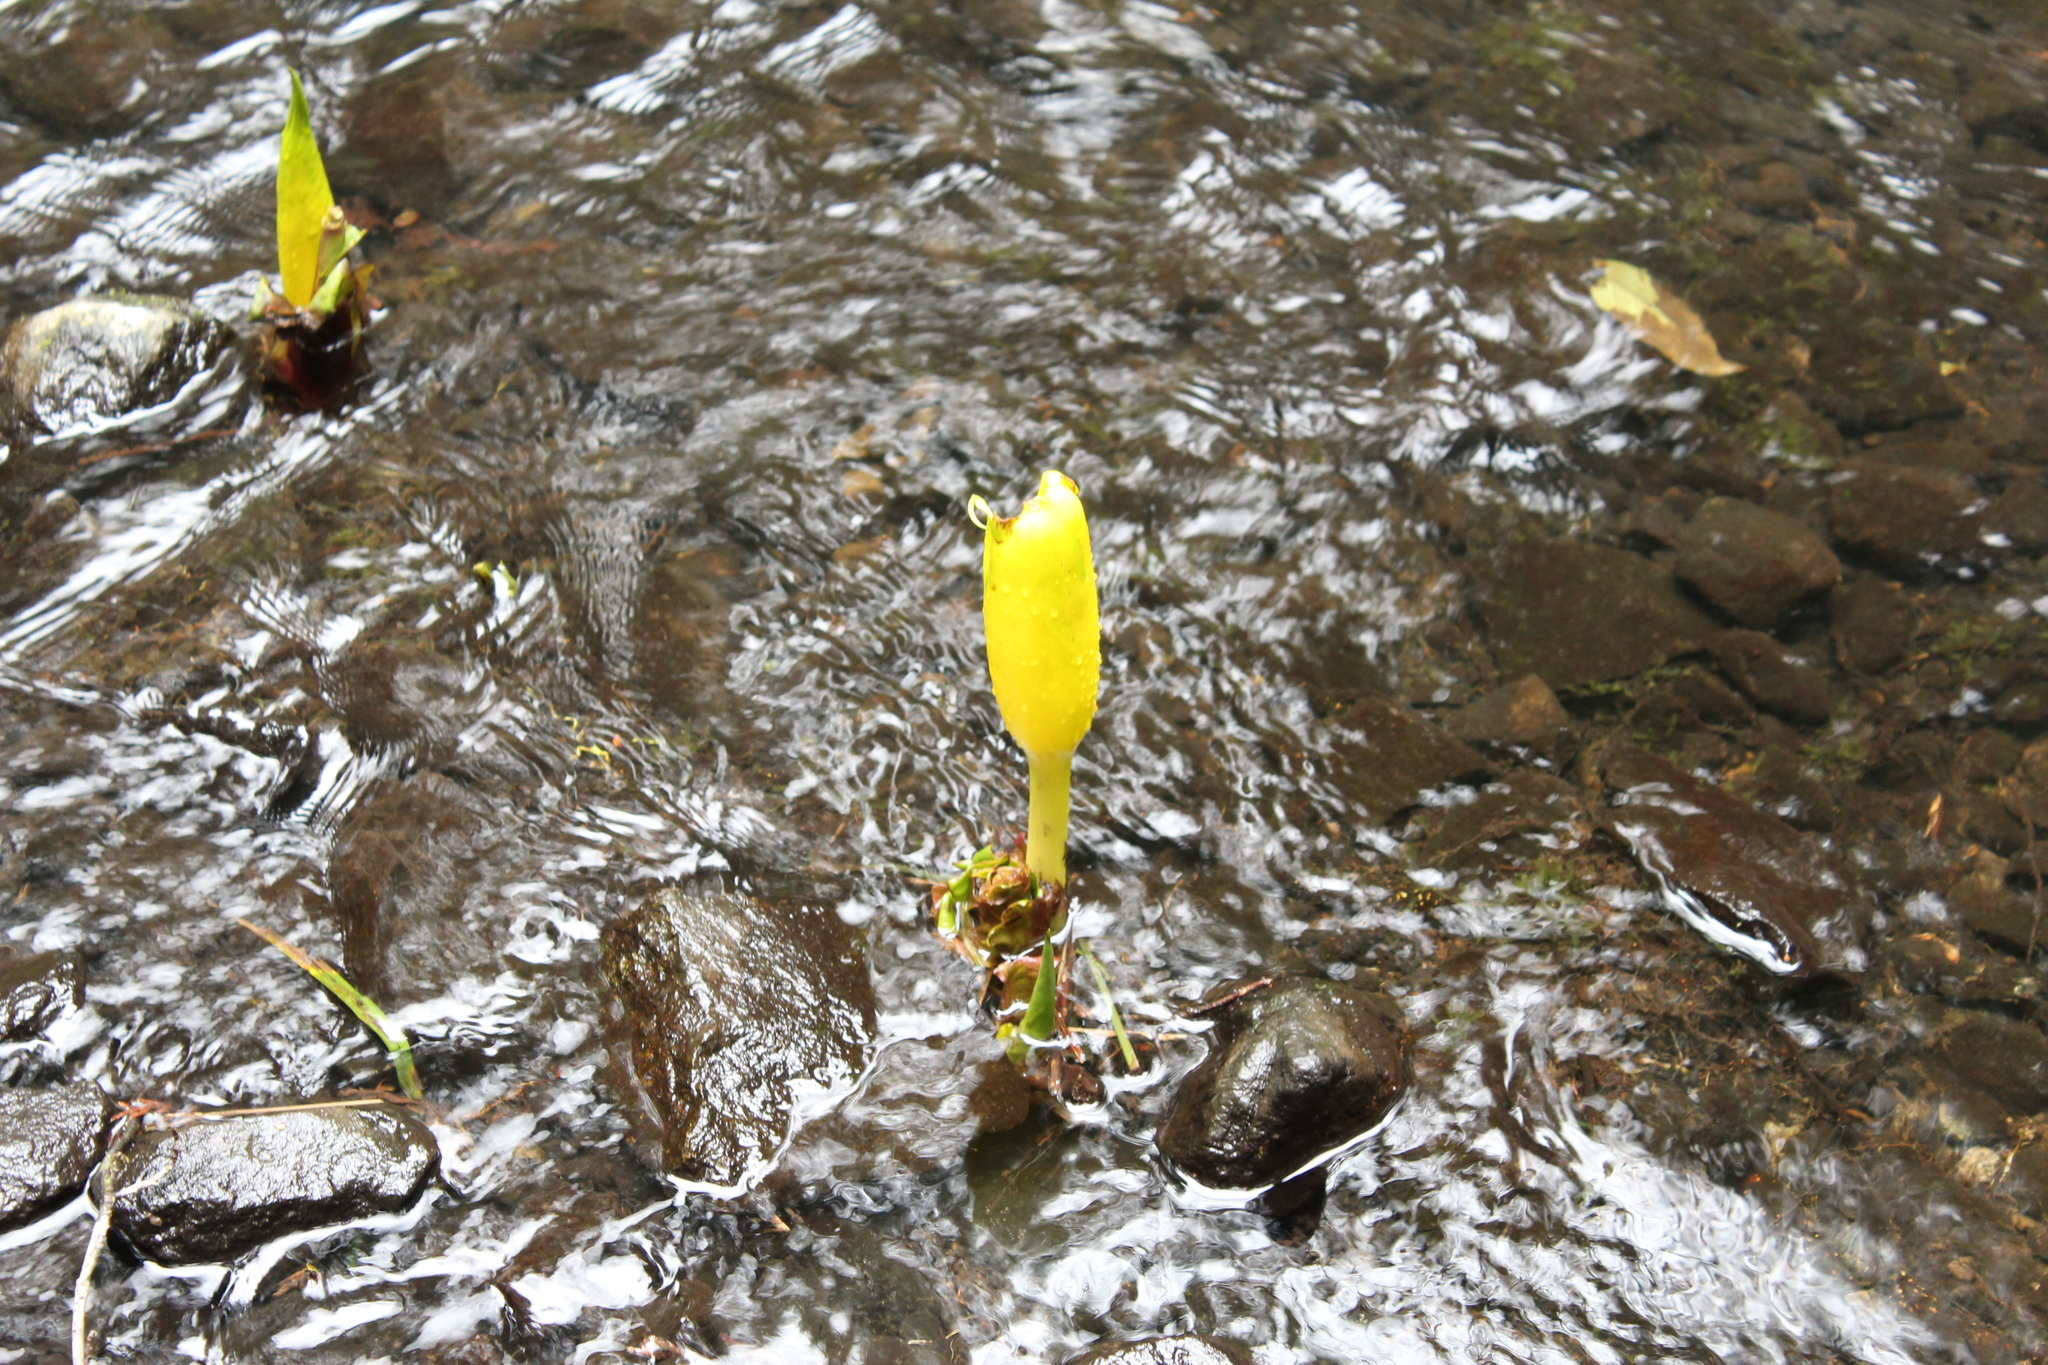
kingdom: Plantae
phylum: Tracheophyta
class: Liliopsida
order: Alismatales
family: Araceae
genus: Lysichiton
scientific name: Lysichiton americanus
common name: American skunk cabbage
